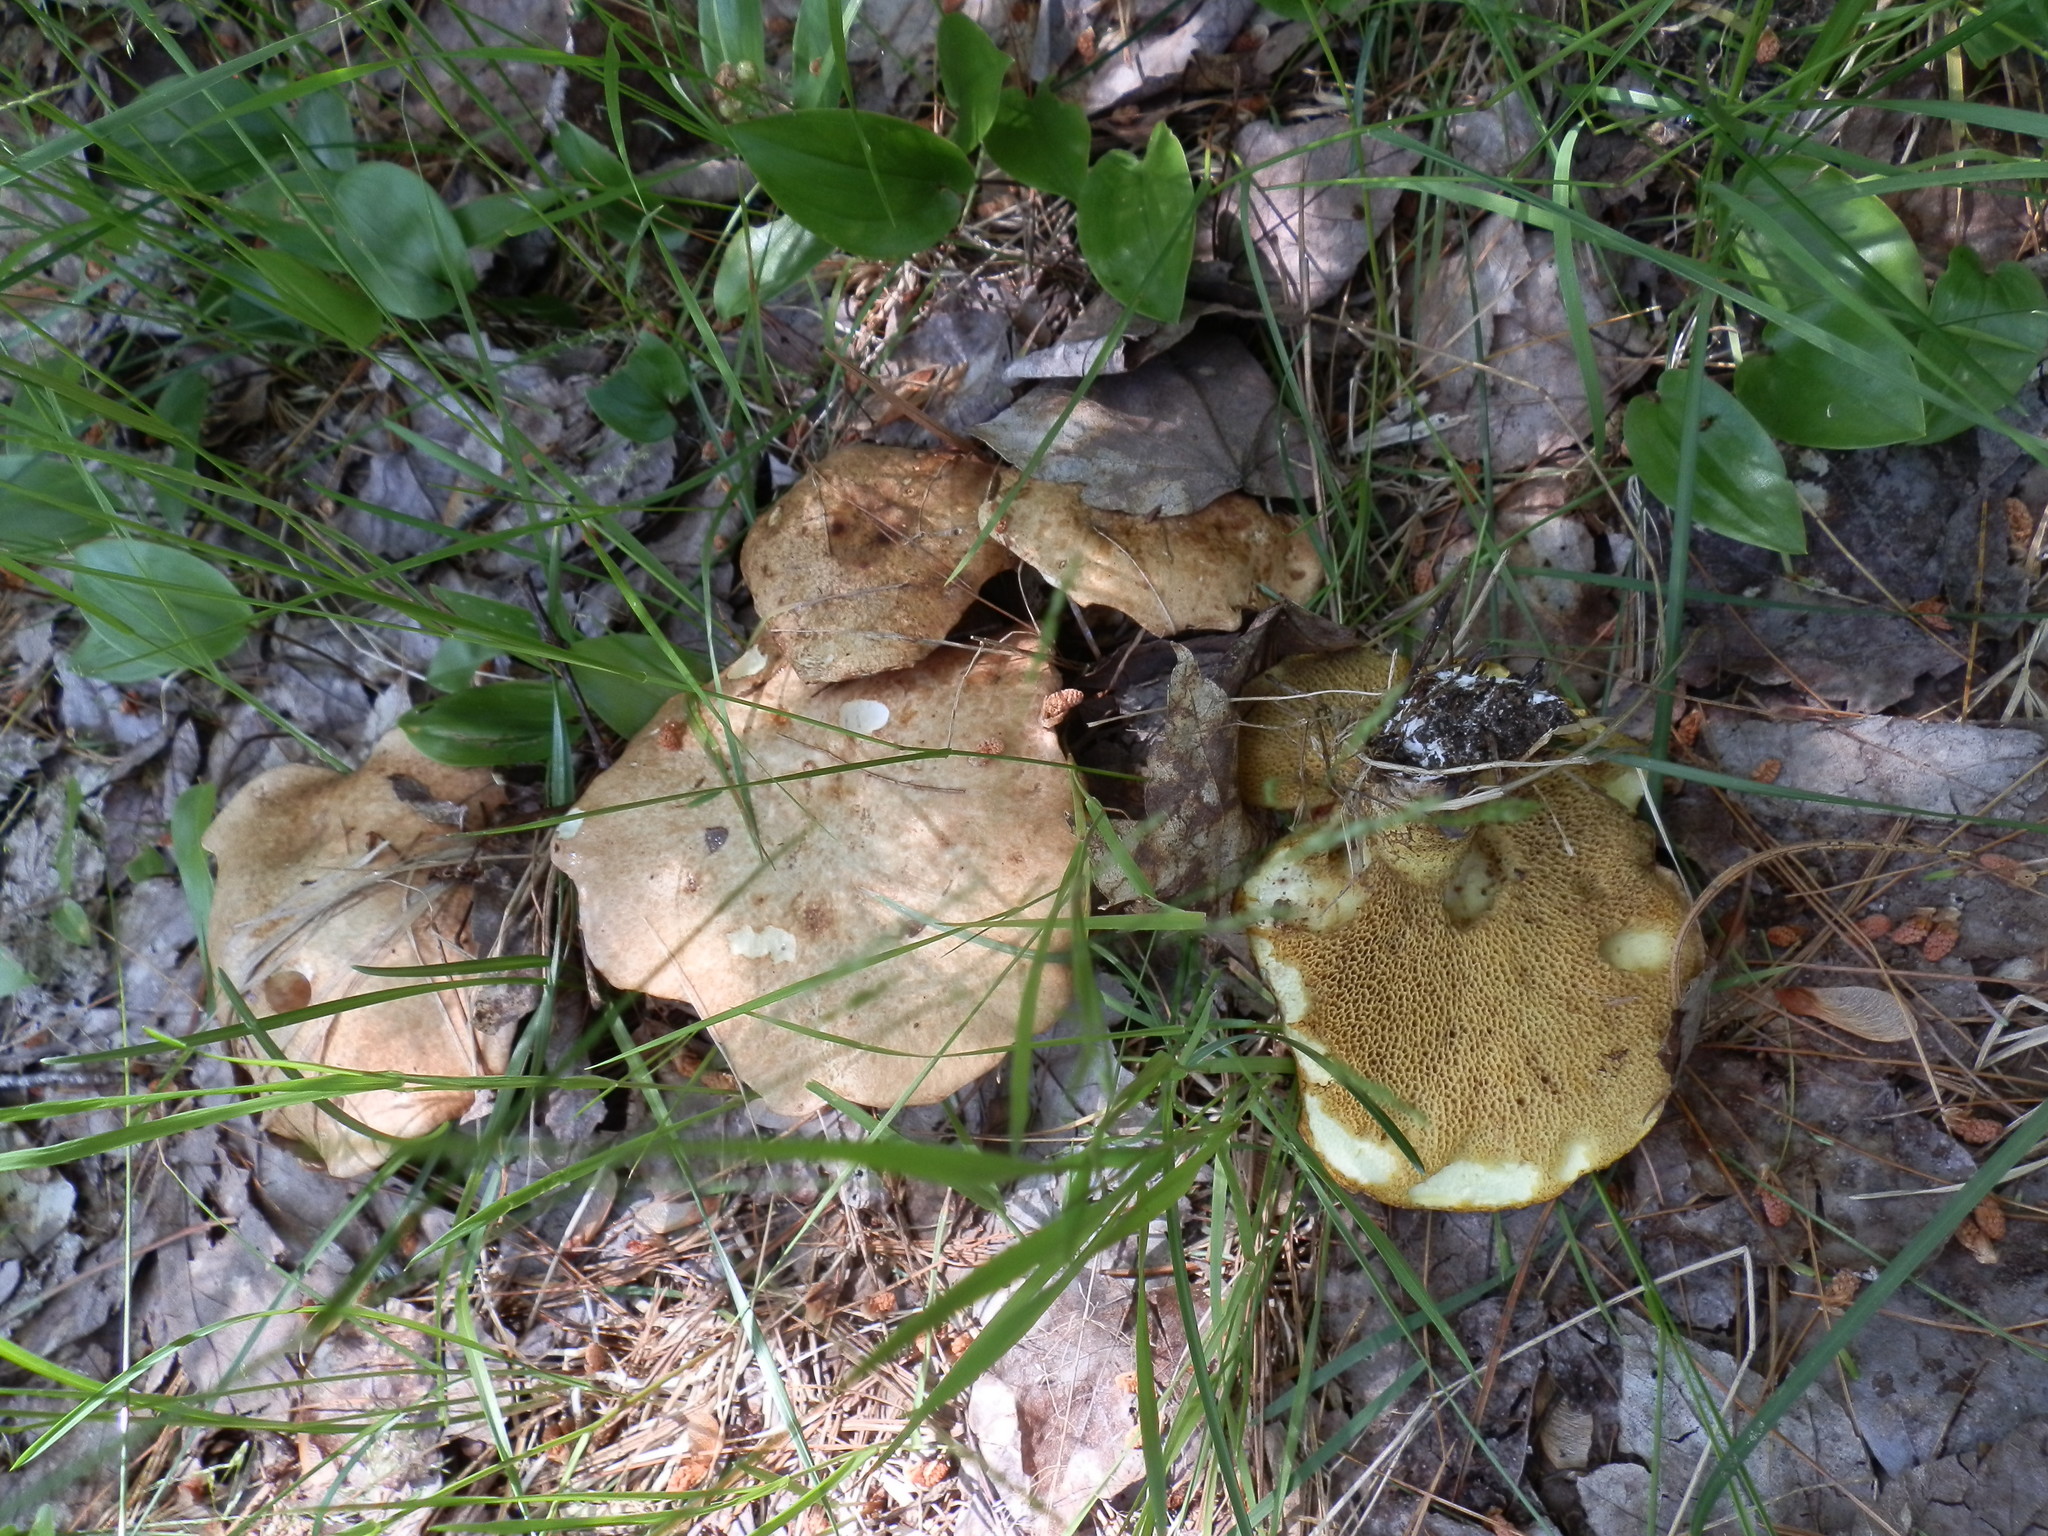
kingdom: Fungi
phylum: Basidiomycota
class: Agaricomycetes
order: Boletales
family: Suillaceae
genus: Fuscoboletinus
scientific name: Fuscoboletinus weaverae
